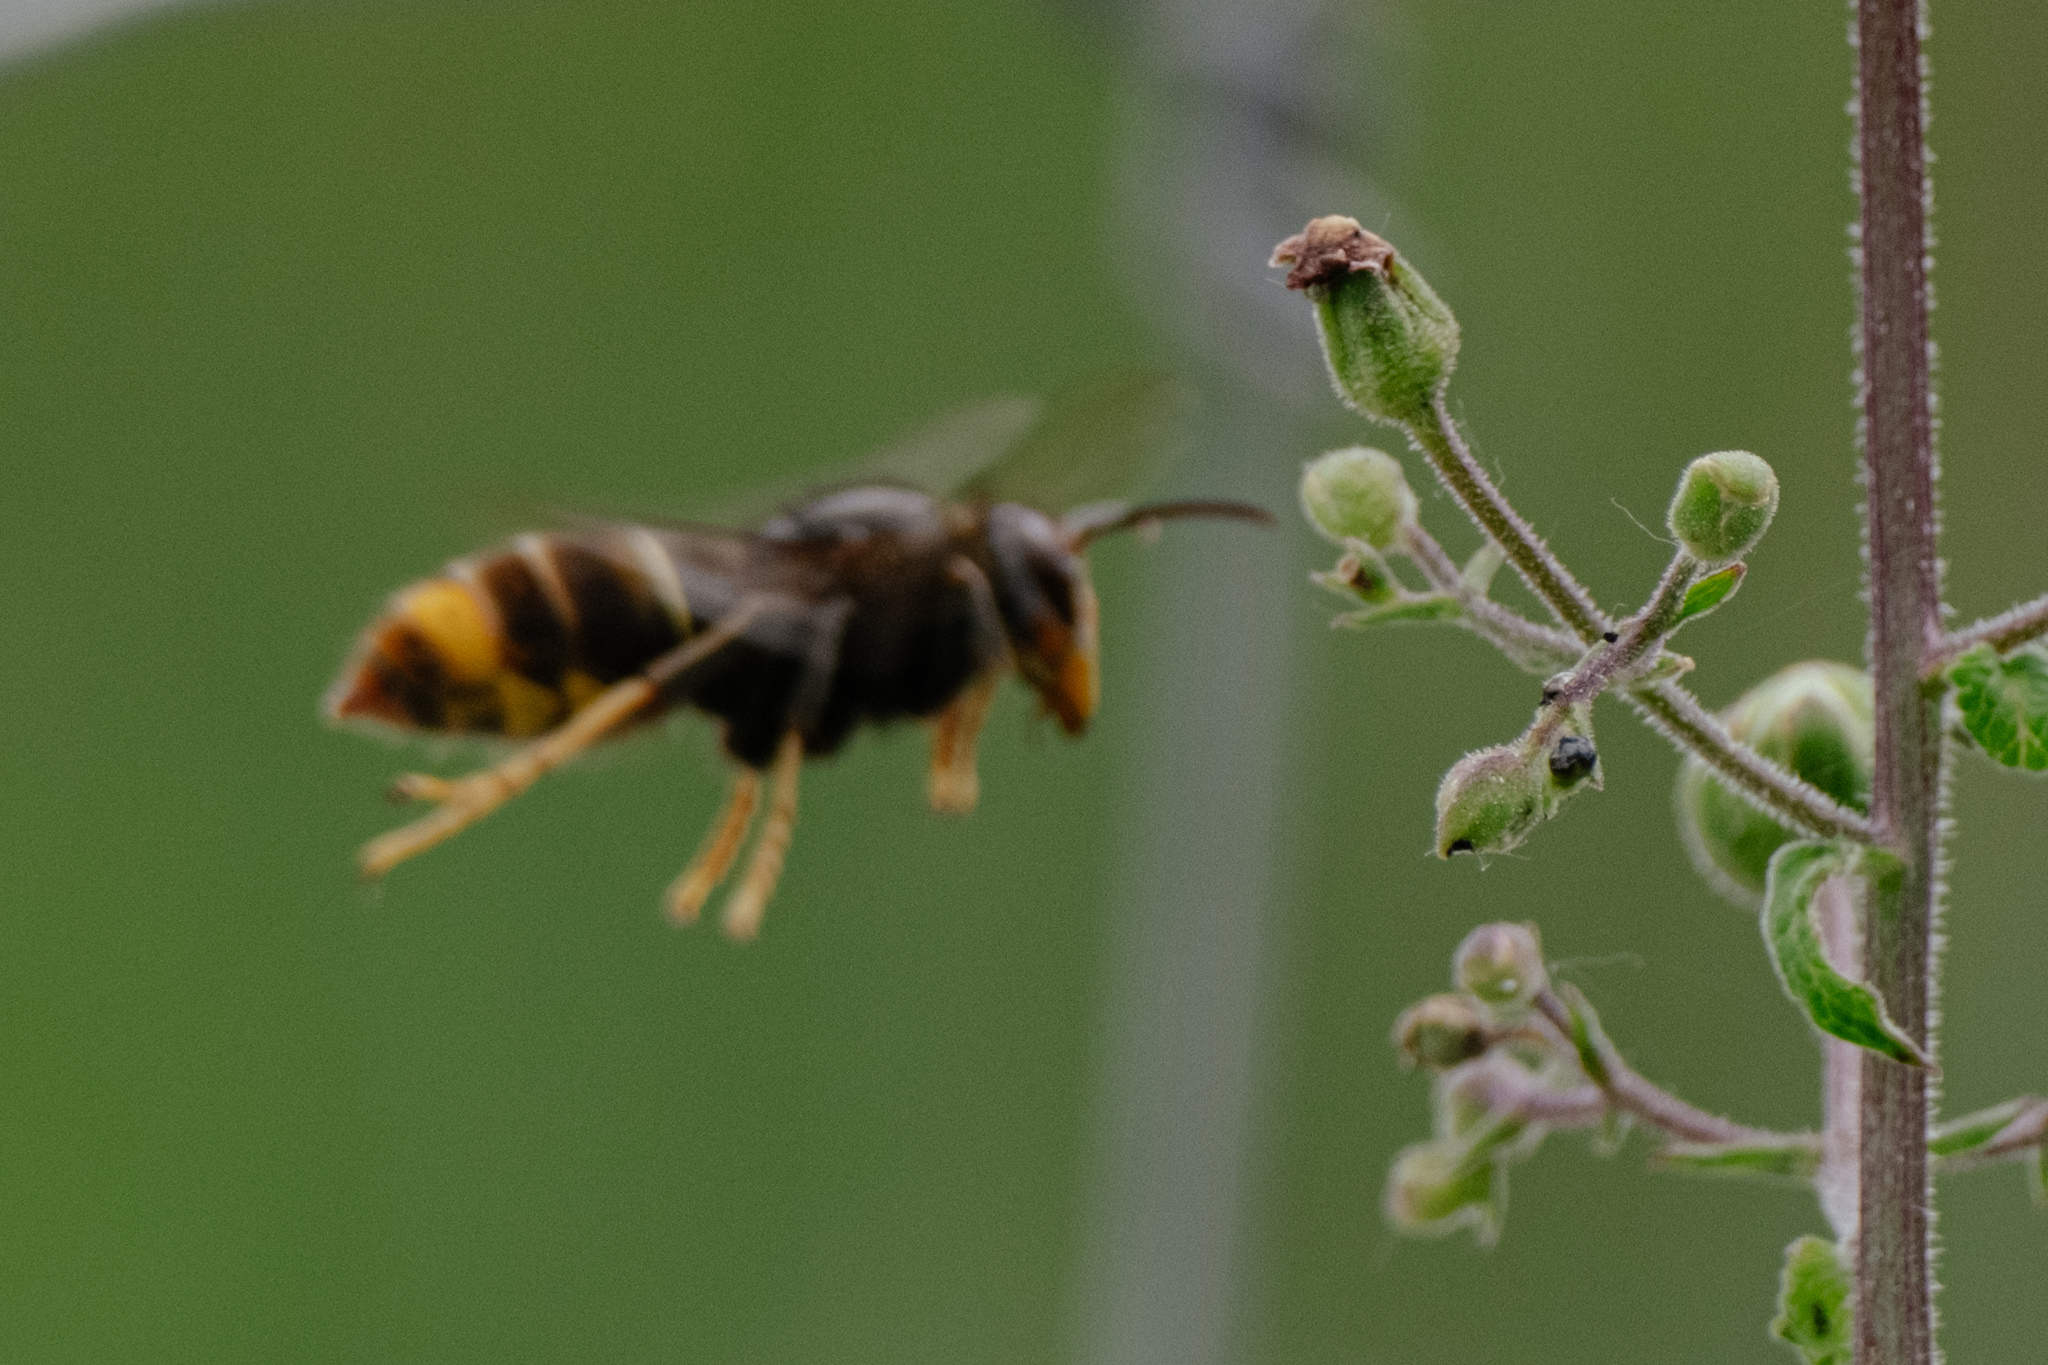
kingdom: Animalia
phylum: Arthropoda
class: Insecta
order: Hymenoptera
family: Vespidae
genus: Vespa
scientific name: Vespa velutina
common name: Asian hornet
